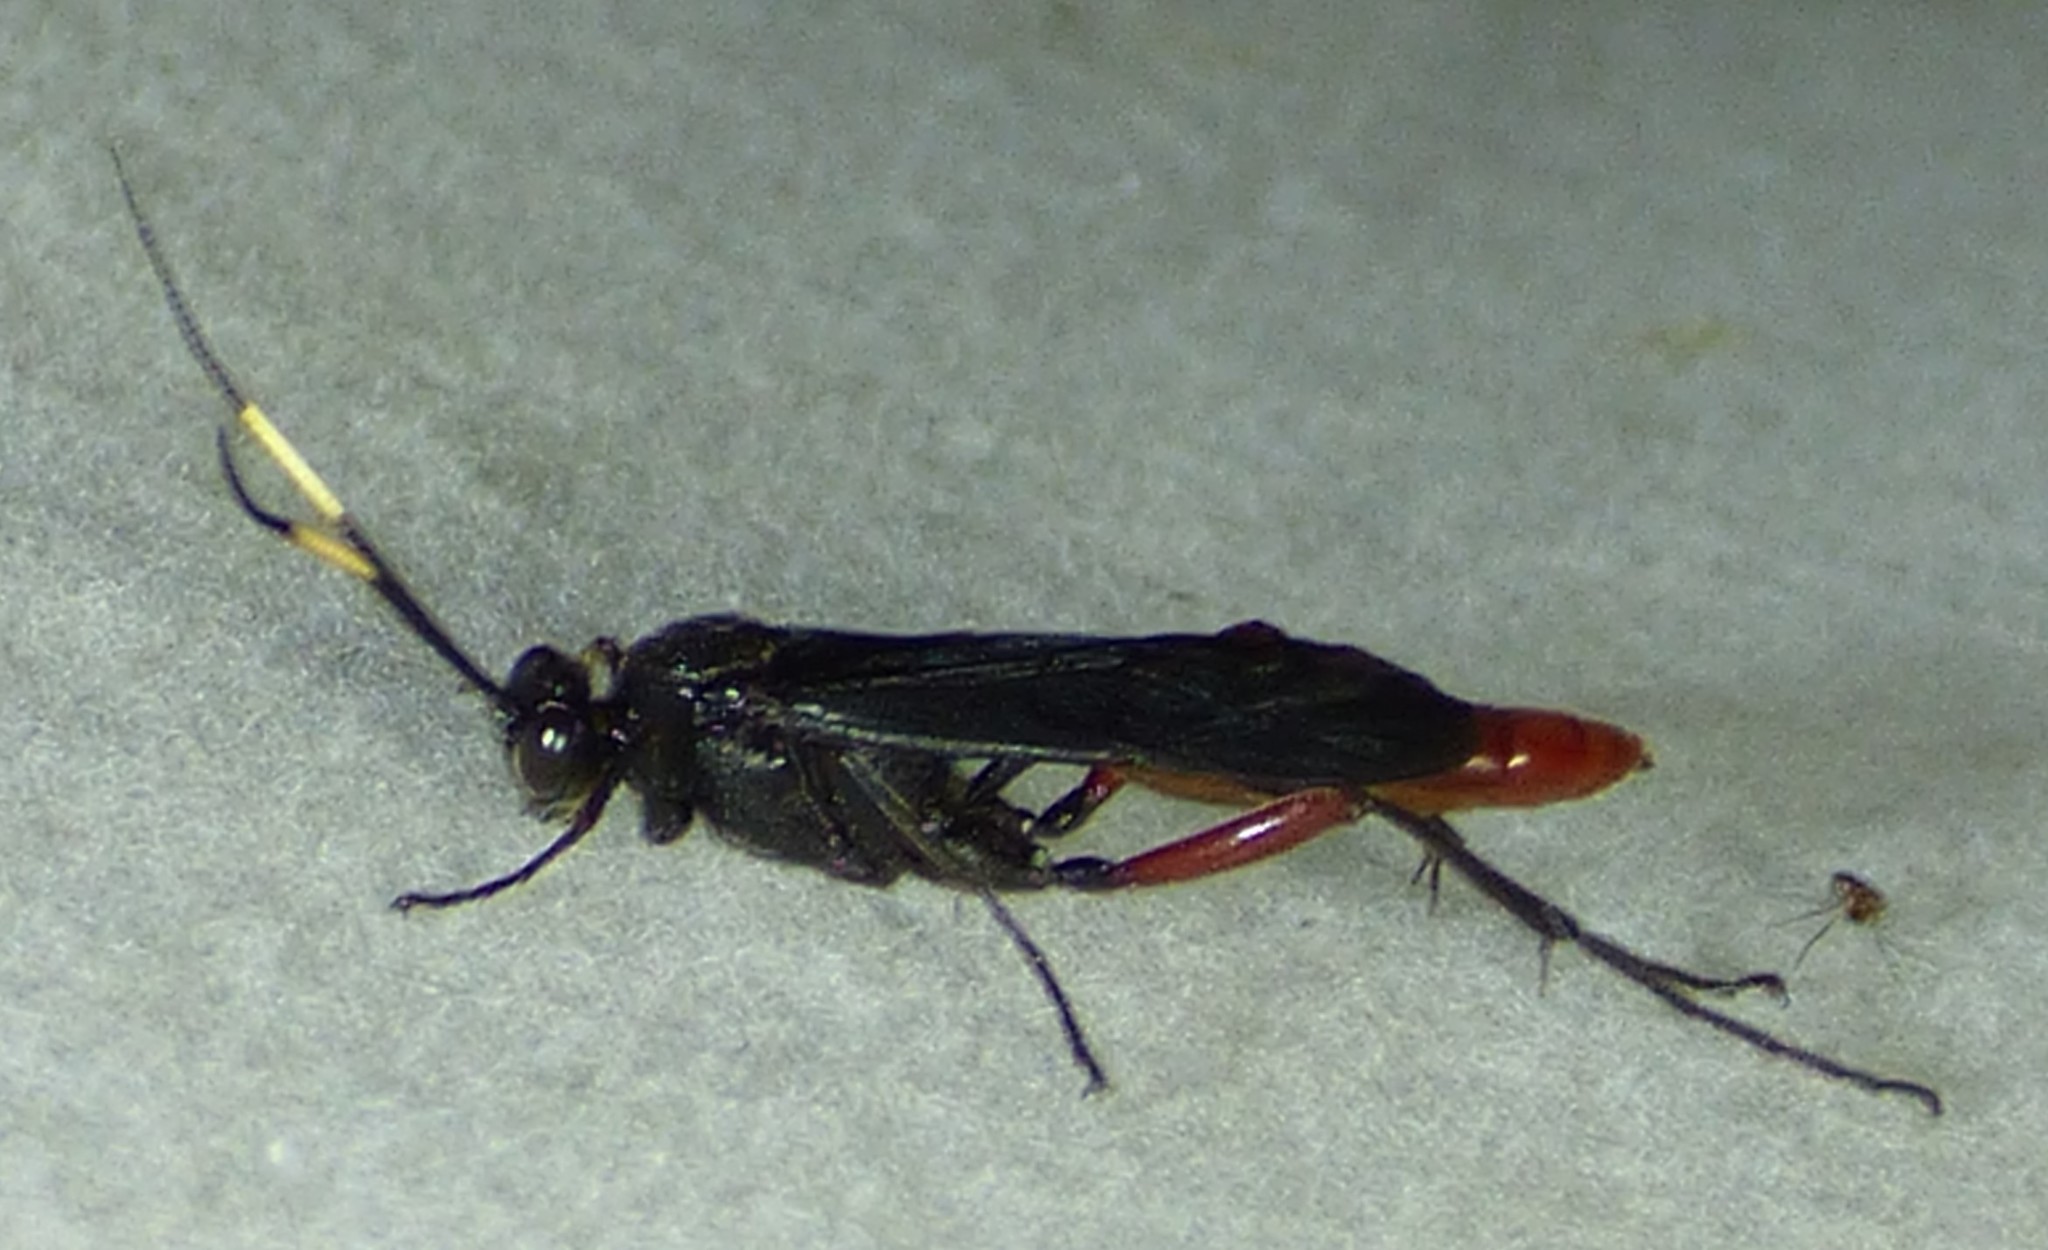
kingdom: Animalia
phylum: Arthropoda
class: Insecta
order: Hymenoptera
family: Ichneumonidae
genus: Limonethe
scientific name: Limonethe maurator
